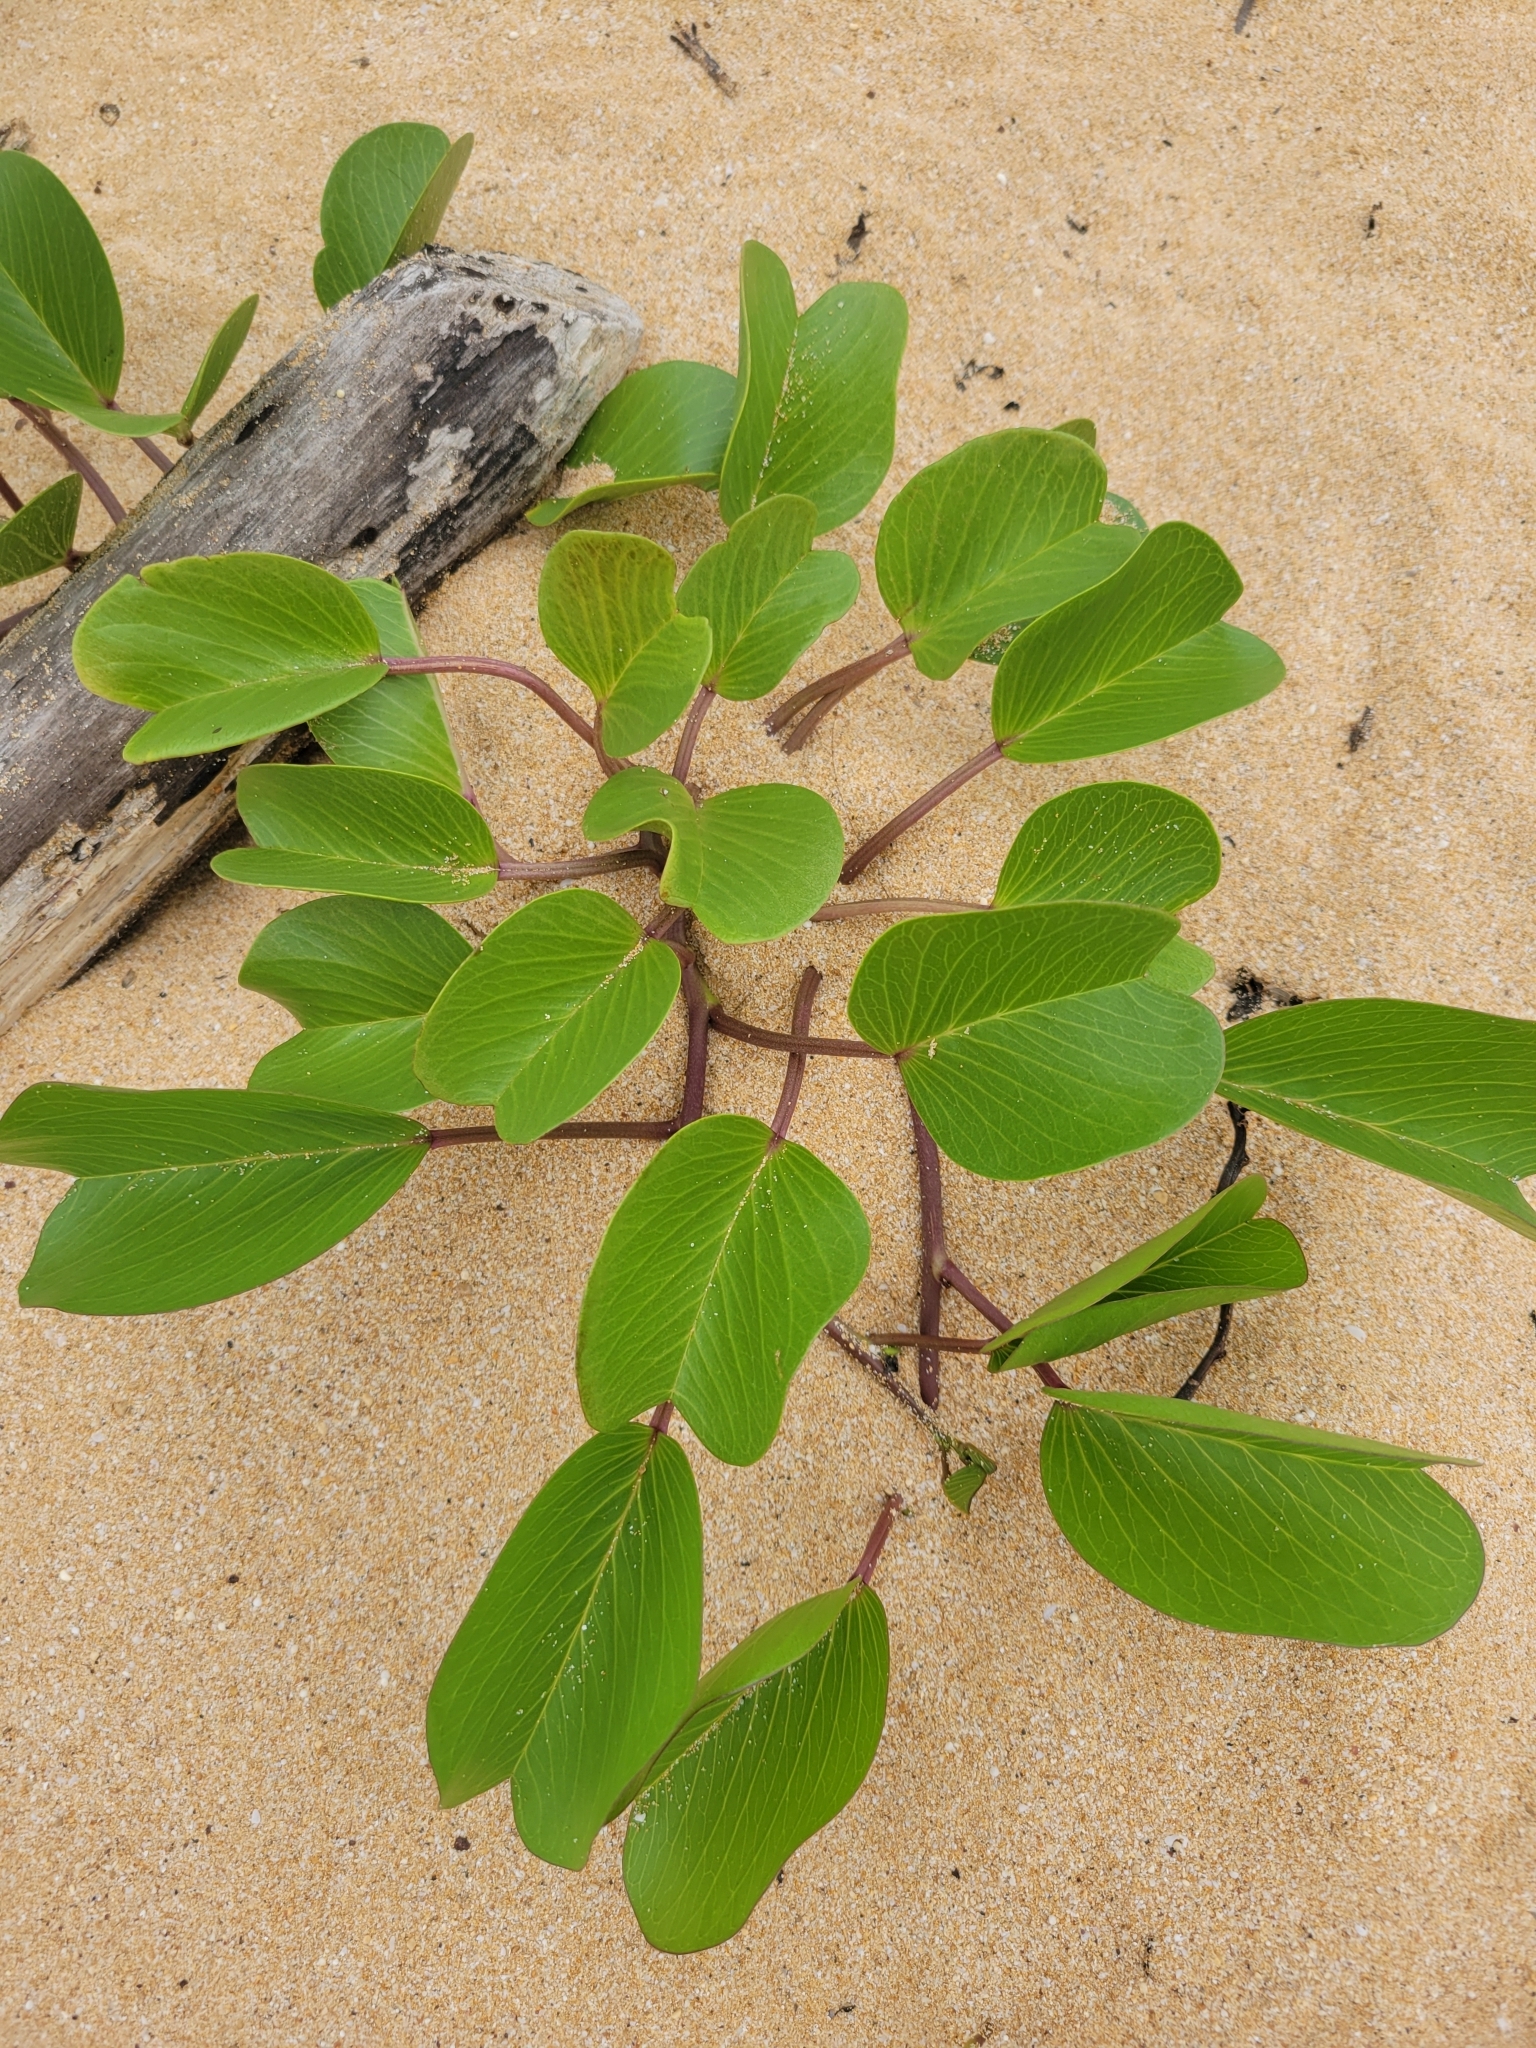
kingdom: Plantae
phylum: Tracheophyta
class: Magnoliopsida
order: Solanales
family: Convolvulaceae
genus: Ipomoea
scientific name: Ipomoea pes-caprae
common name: Beach morning glory
